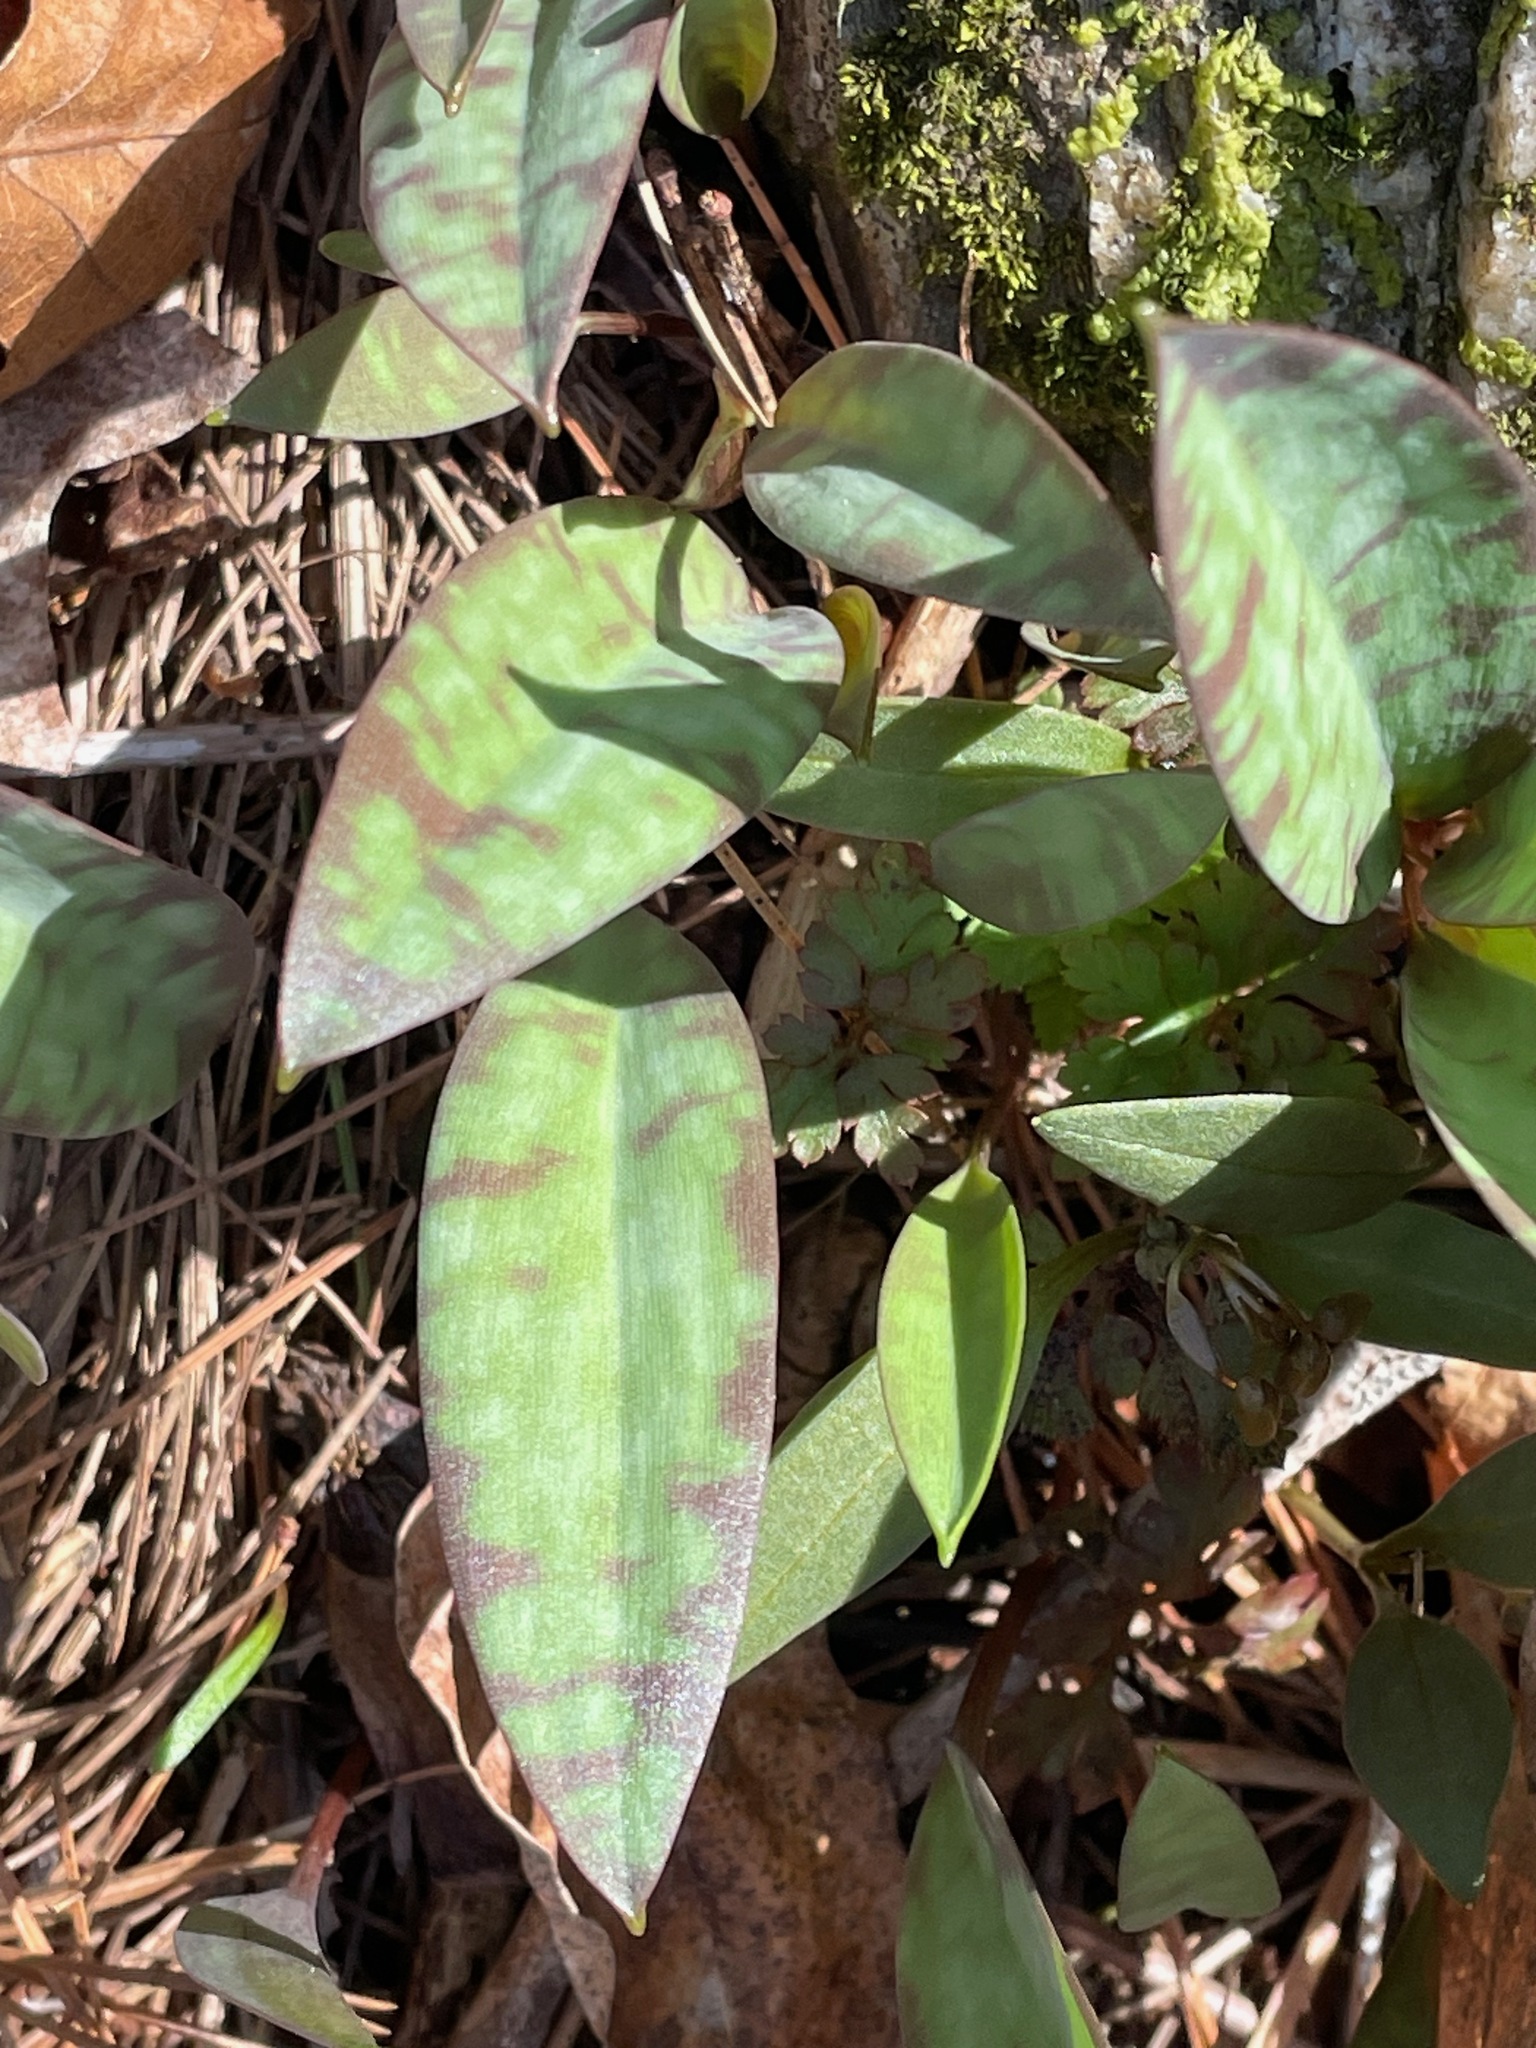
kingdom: Plantae
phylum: Tracheophyta
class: Liliopsida
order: Liliales
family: Liliaceae
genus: Erythronium
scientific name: Erythronium americanum
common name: Yellow adder's-tongue
